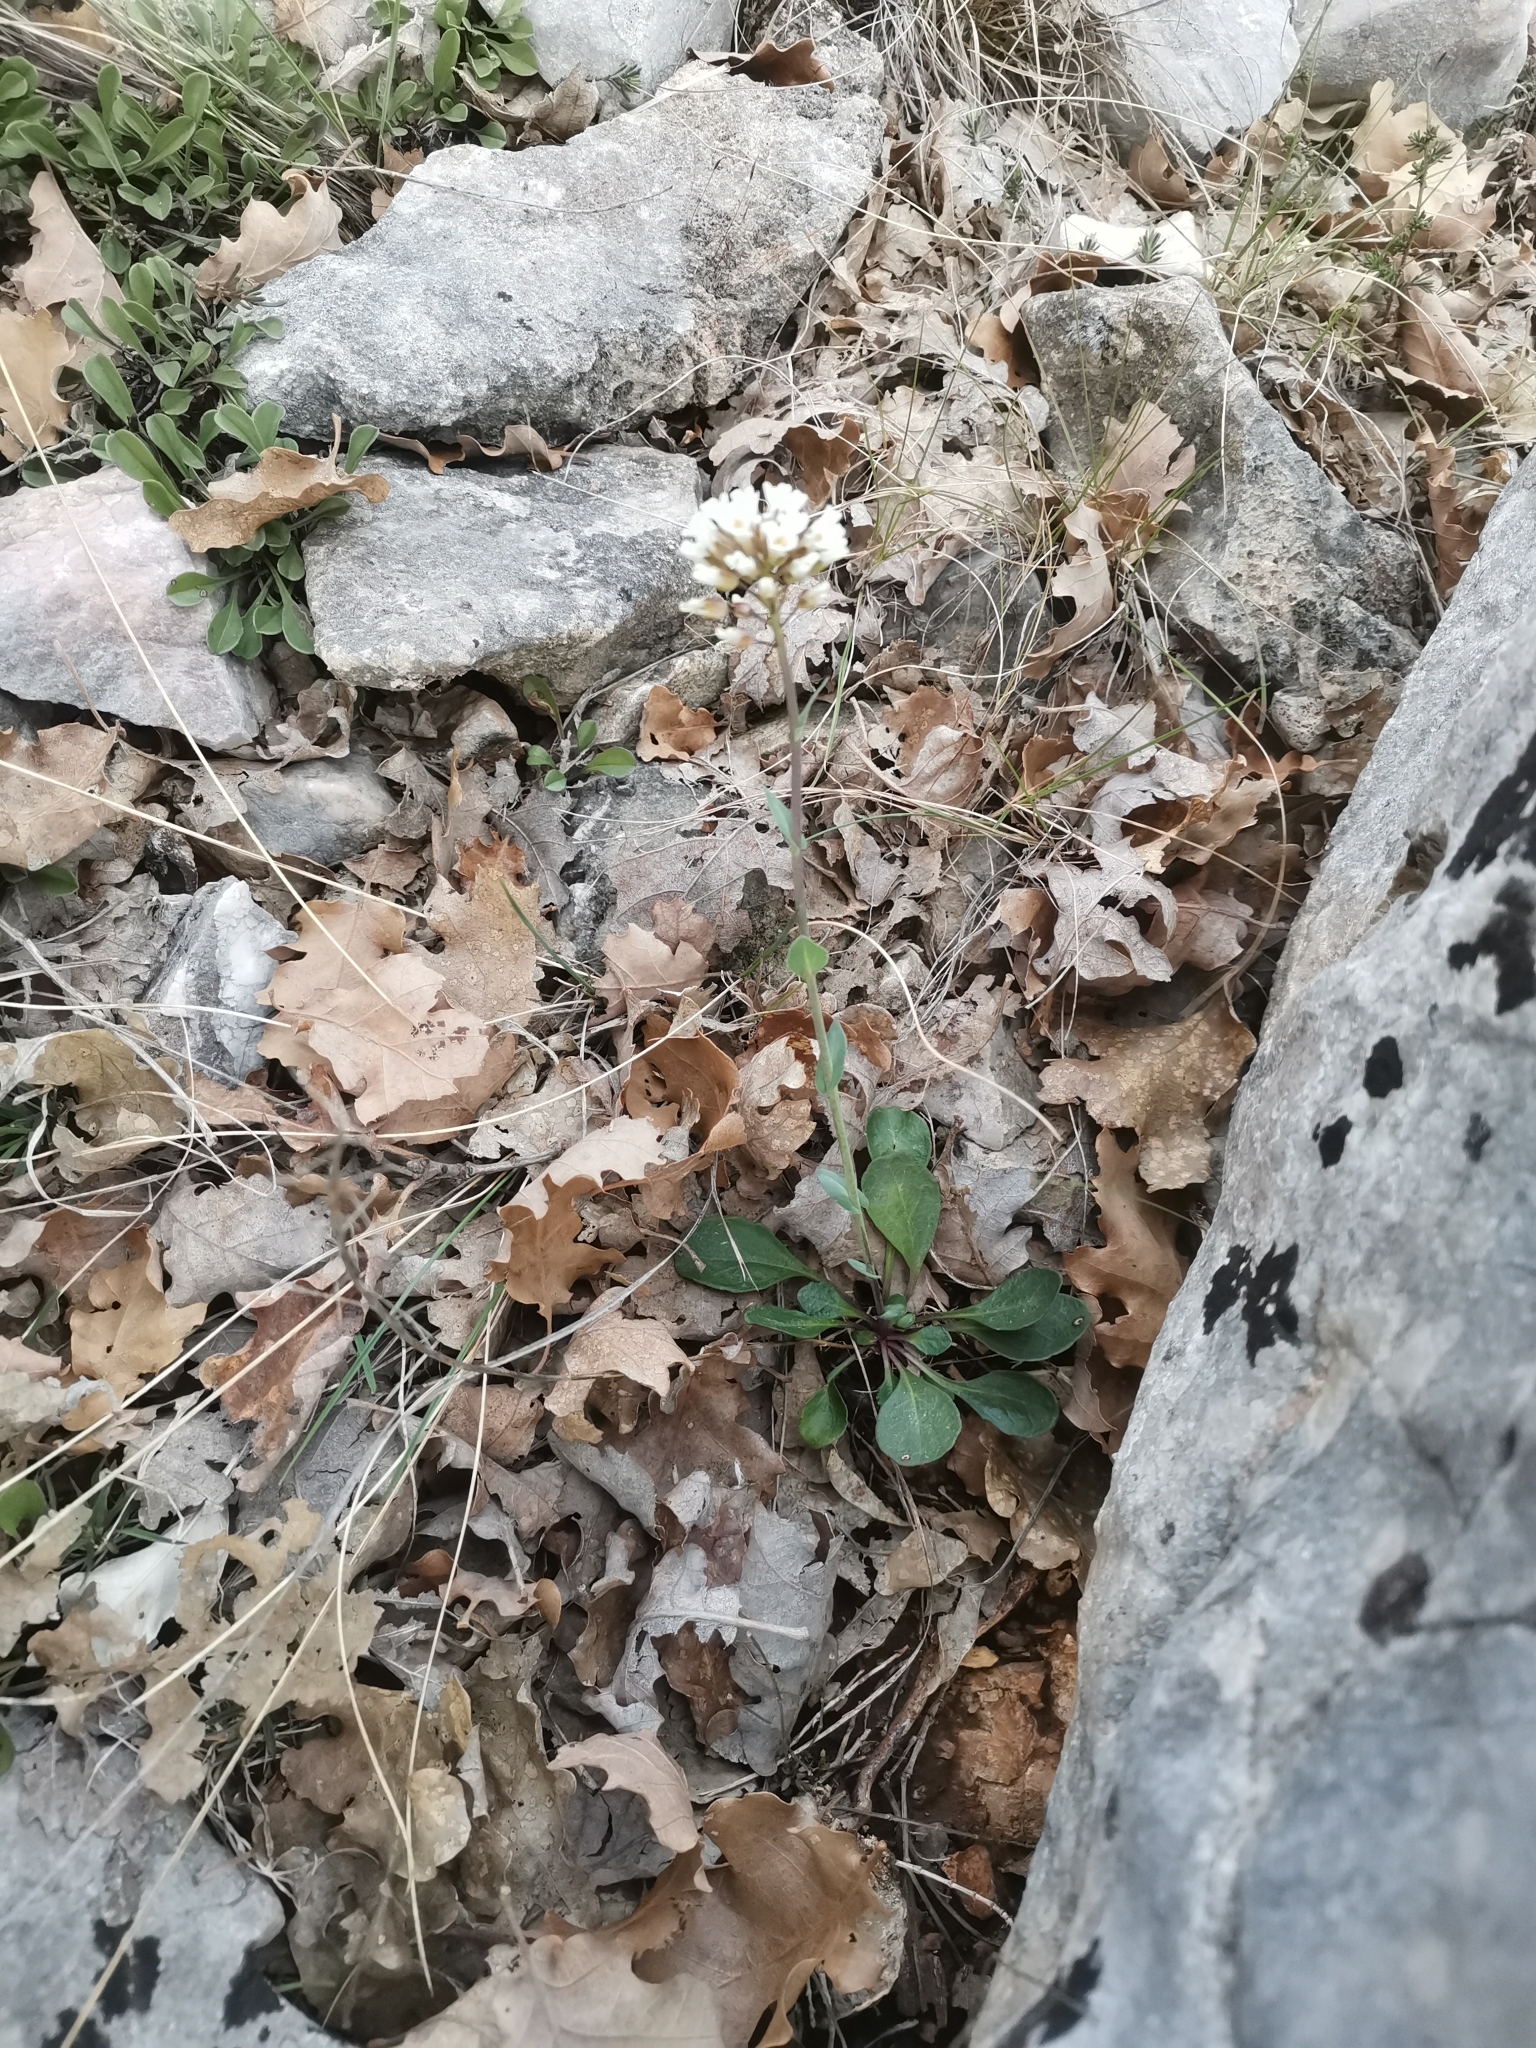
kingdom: Plantae
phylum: Tracheophyta
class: Magnoliopsida
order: Brassicales
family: Brassicaceae
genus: Noccaea
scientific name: Noccaea praecox
